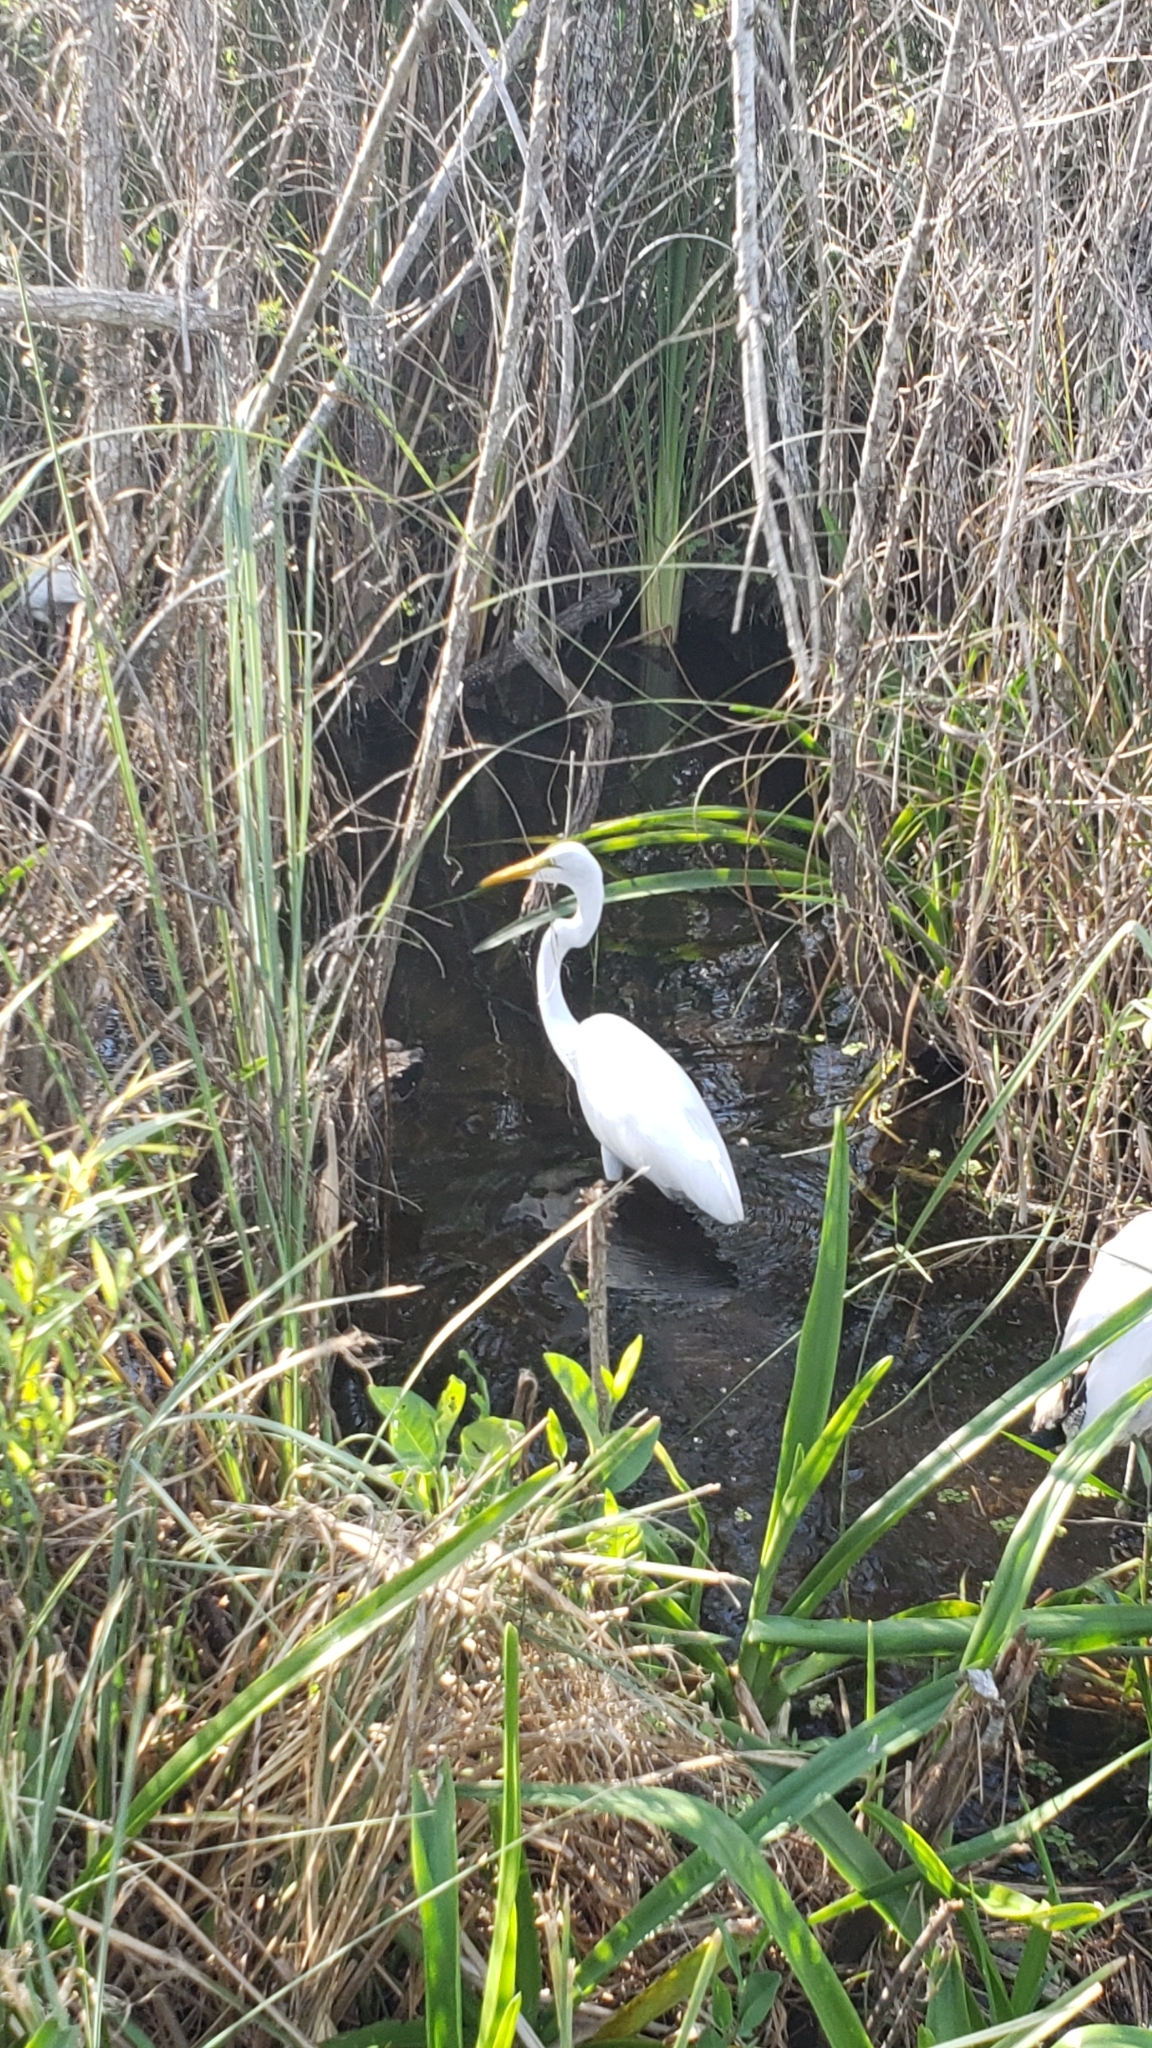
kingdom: Animalia
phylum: Chordata
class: Aves
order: Pelecaniformes
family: Ardeidae
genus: Ardea
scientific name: Ardea alba
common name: Great egret
